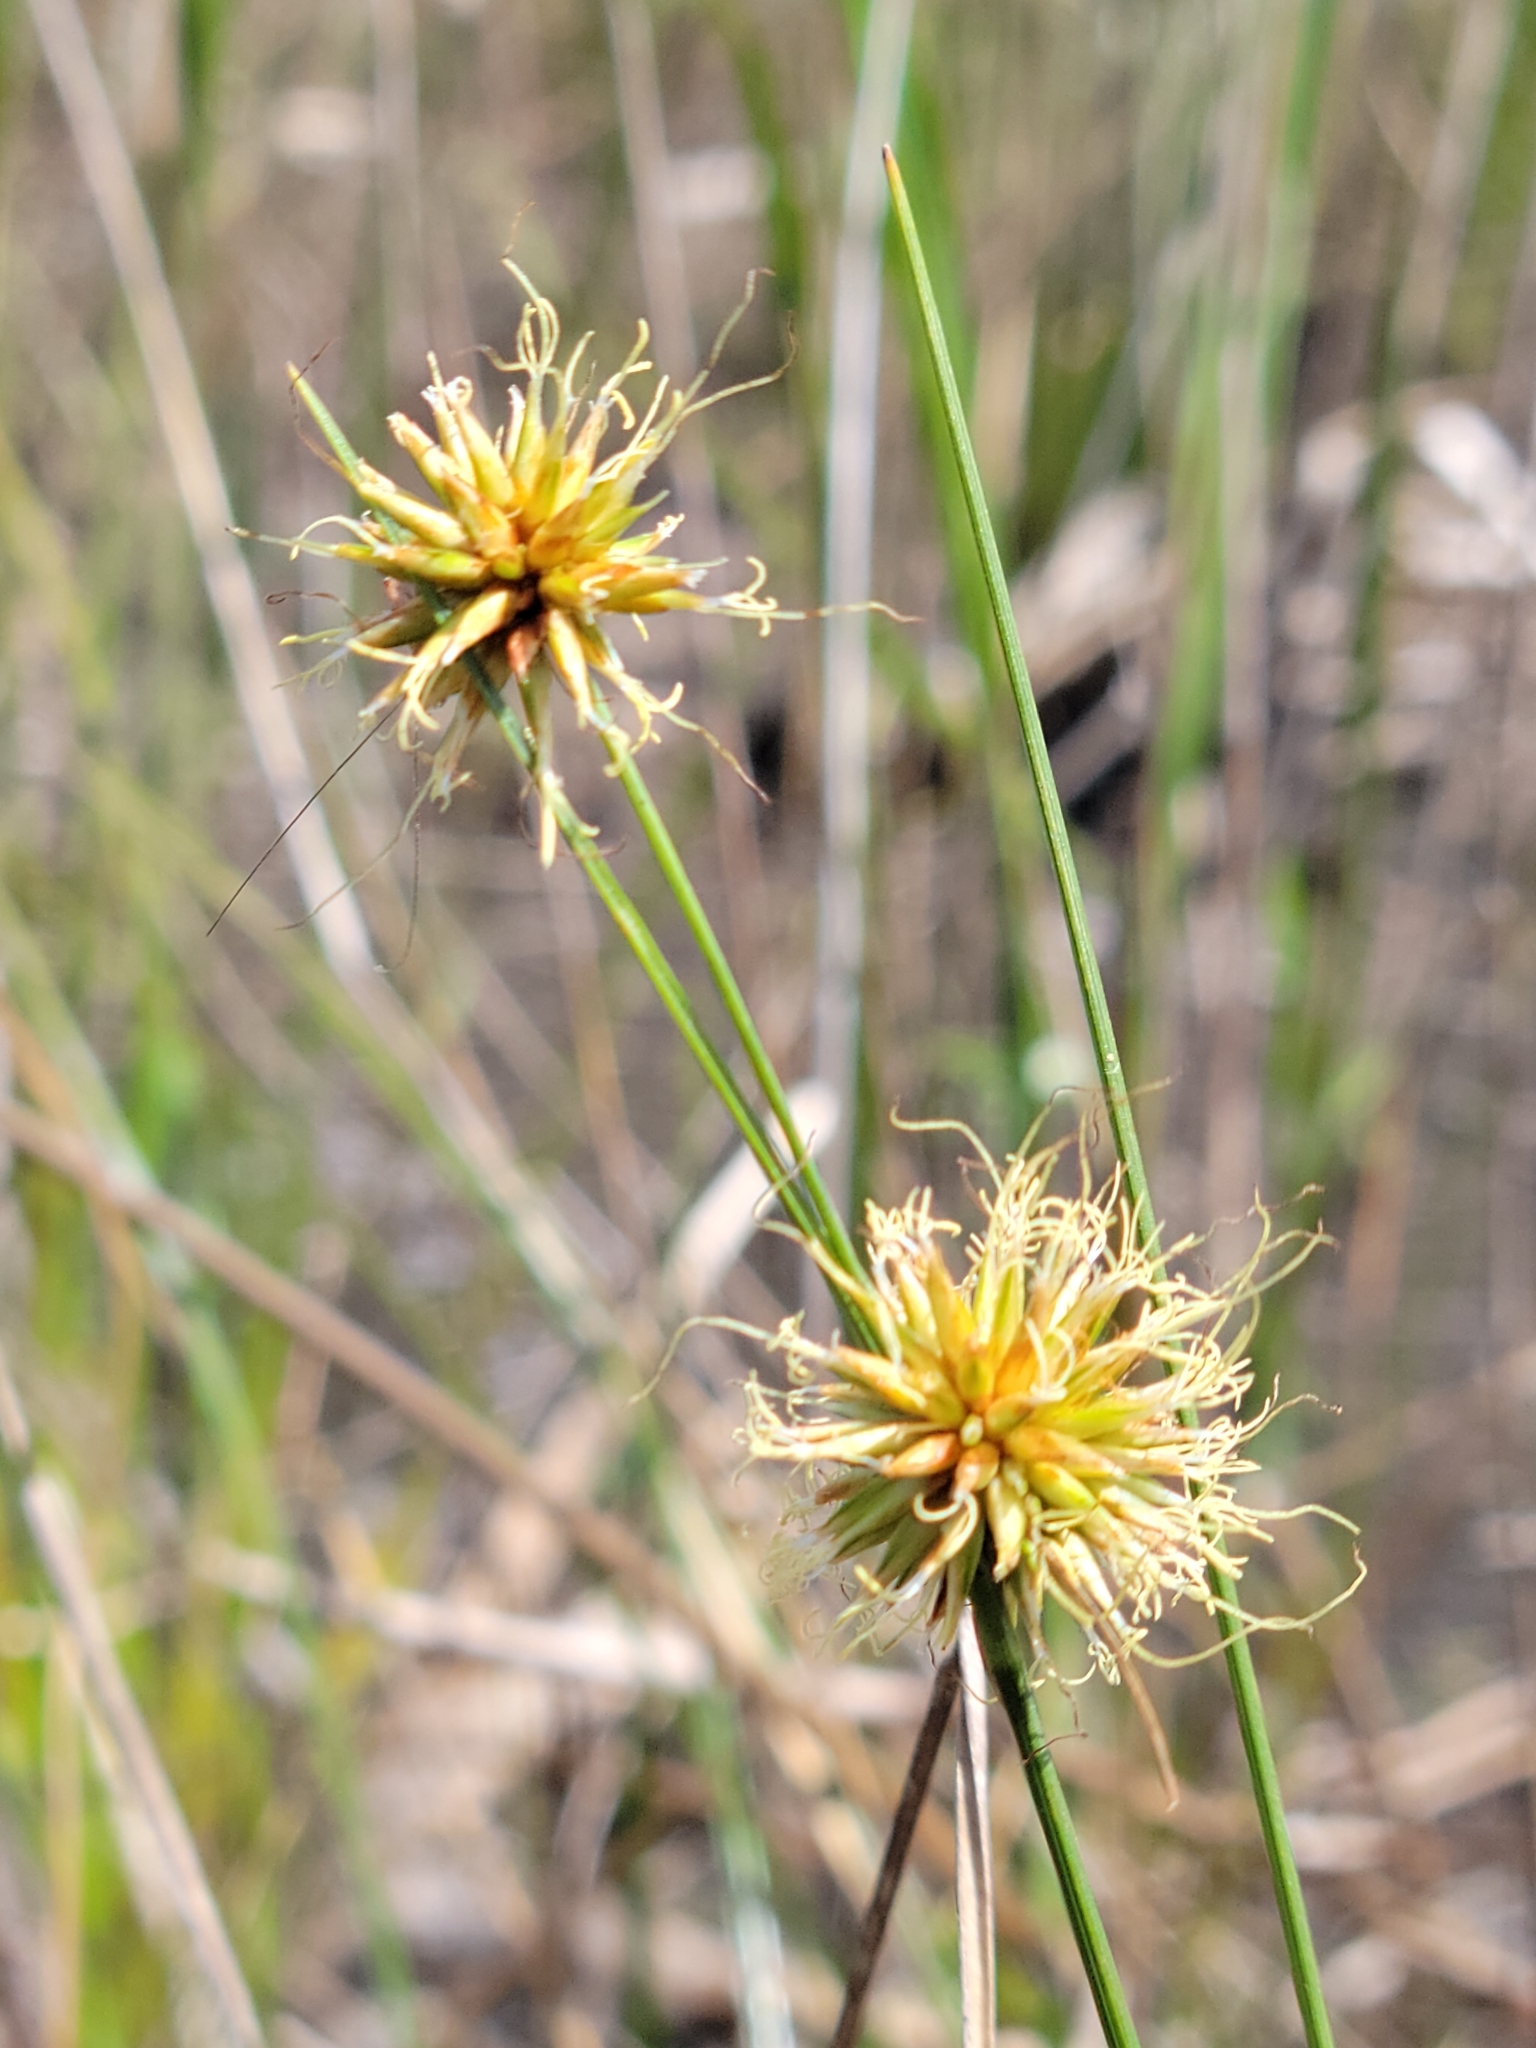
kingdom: Plantae
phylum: Tracheophyta
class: Liliopsida
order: Poales
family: Cyperaceae
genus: Rhynchospora
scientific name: Rhynchospora tracyi
